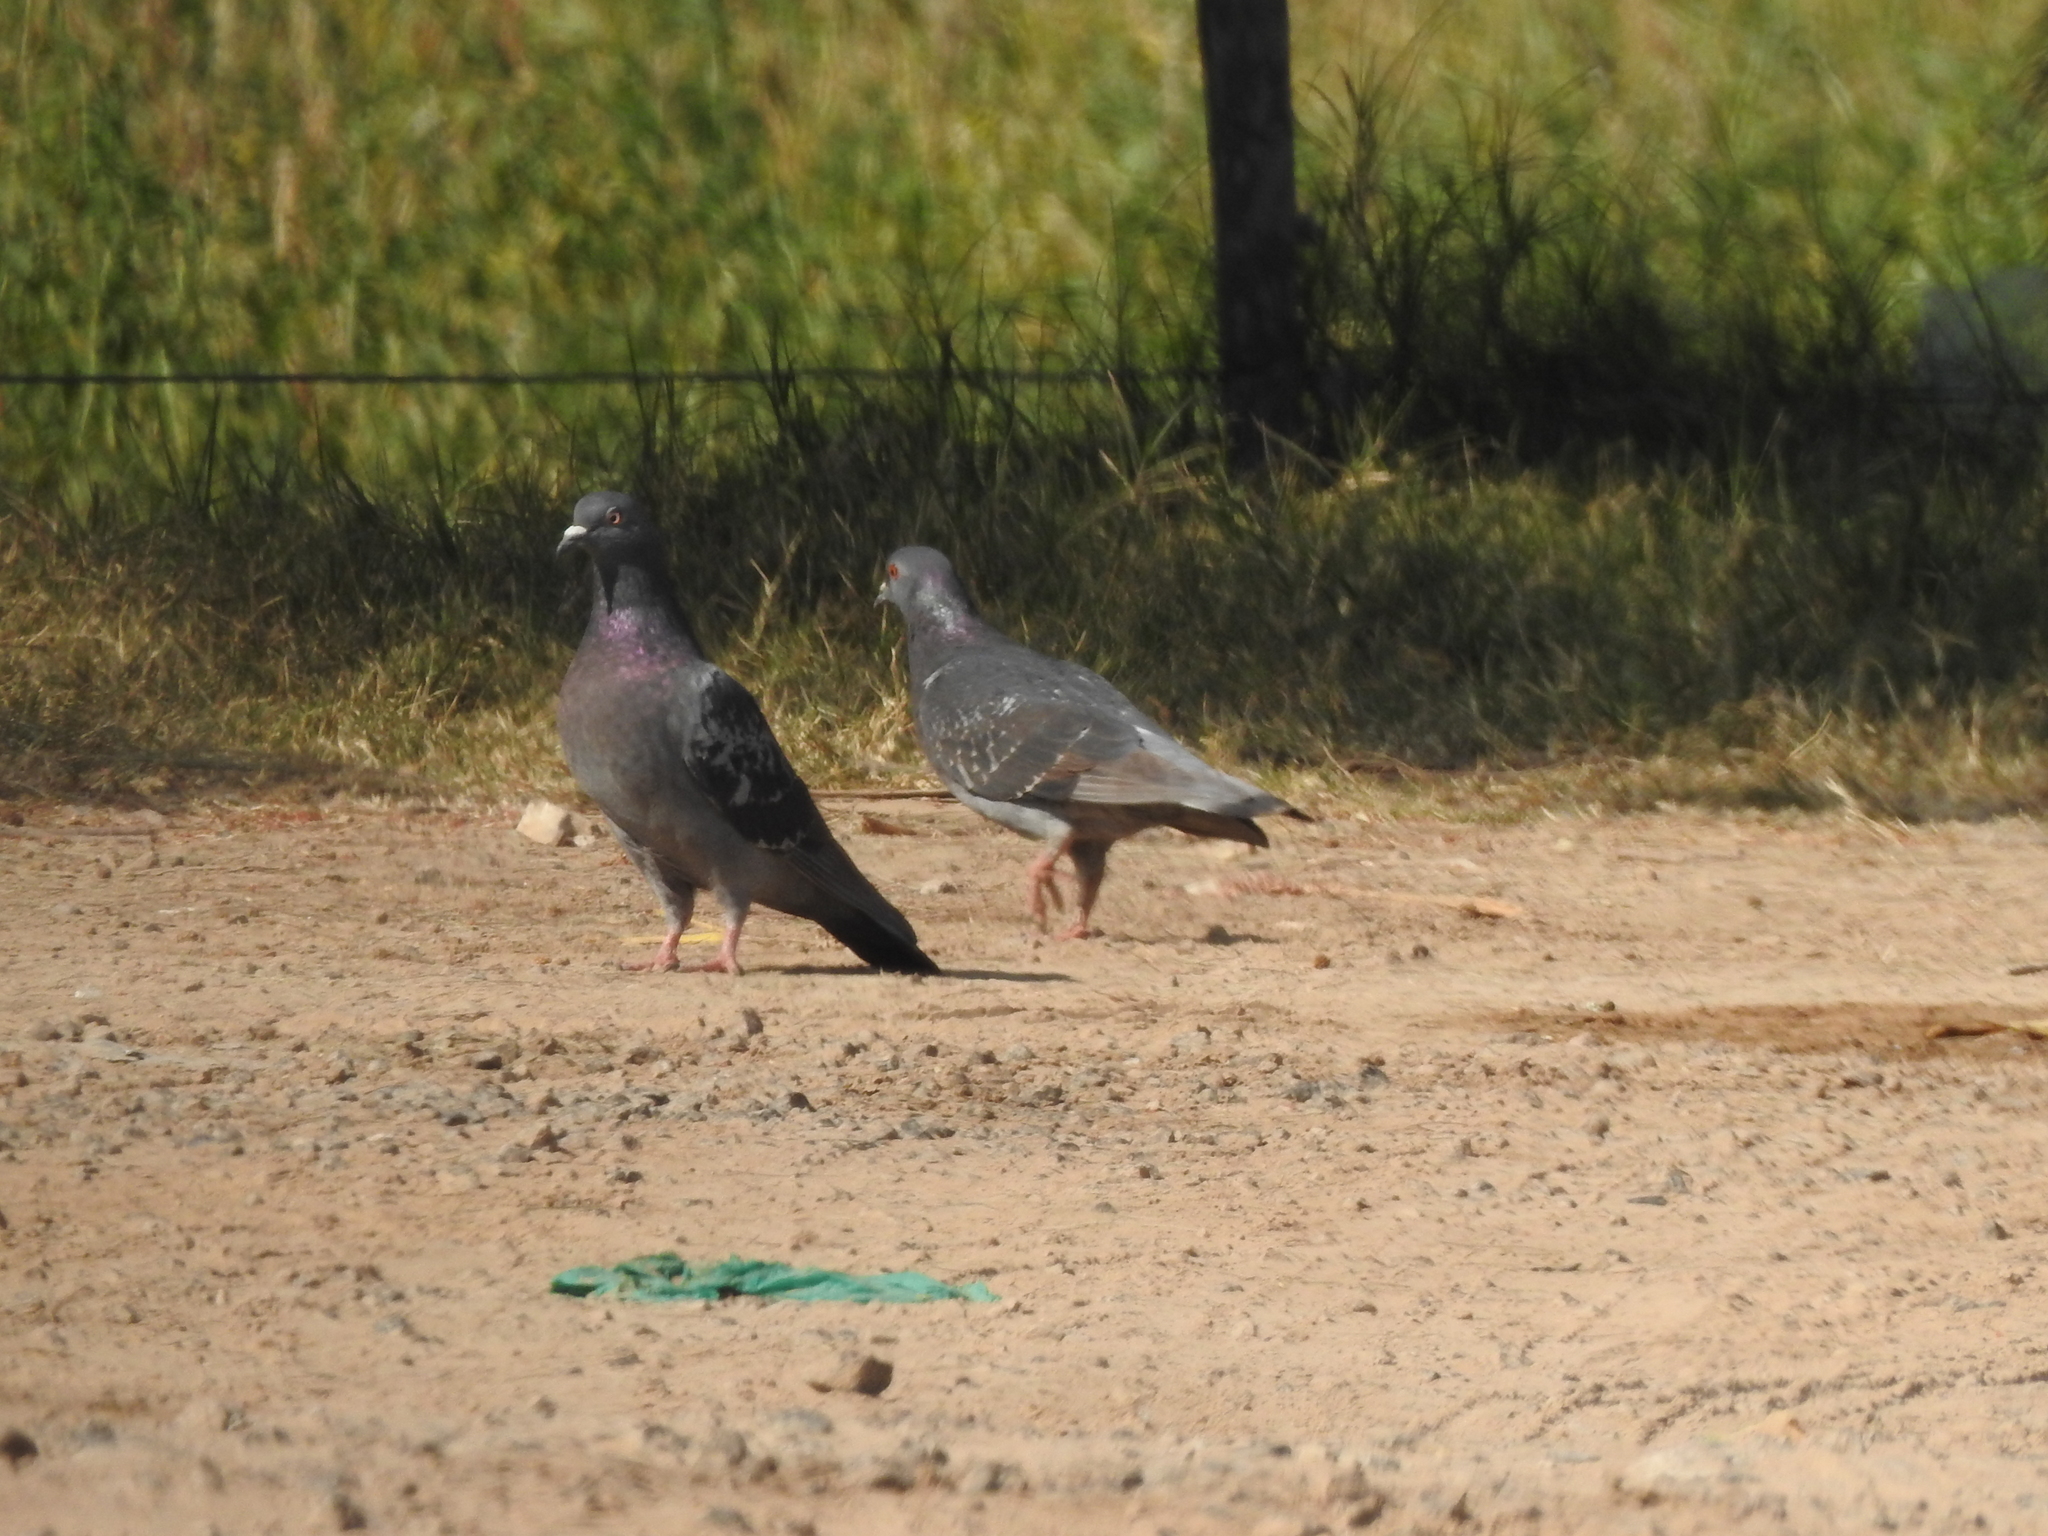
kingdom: Animalia
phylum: Chordata
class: Aves
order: Columbiformes
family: Columbidae
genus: Columba
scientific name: Columba livia
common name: Rock pigeon
